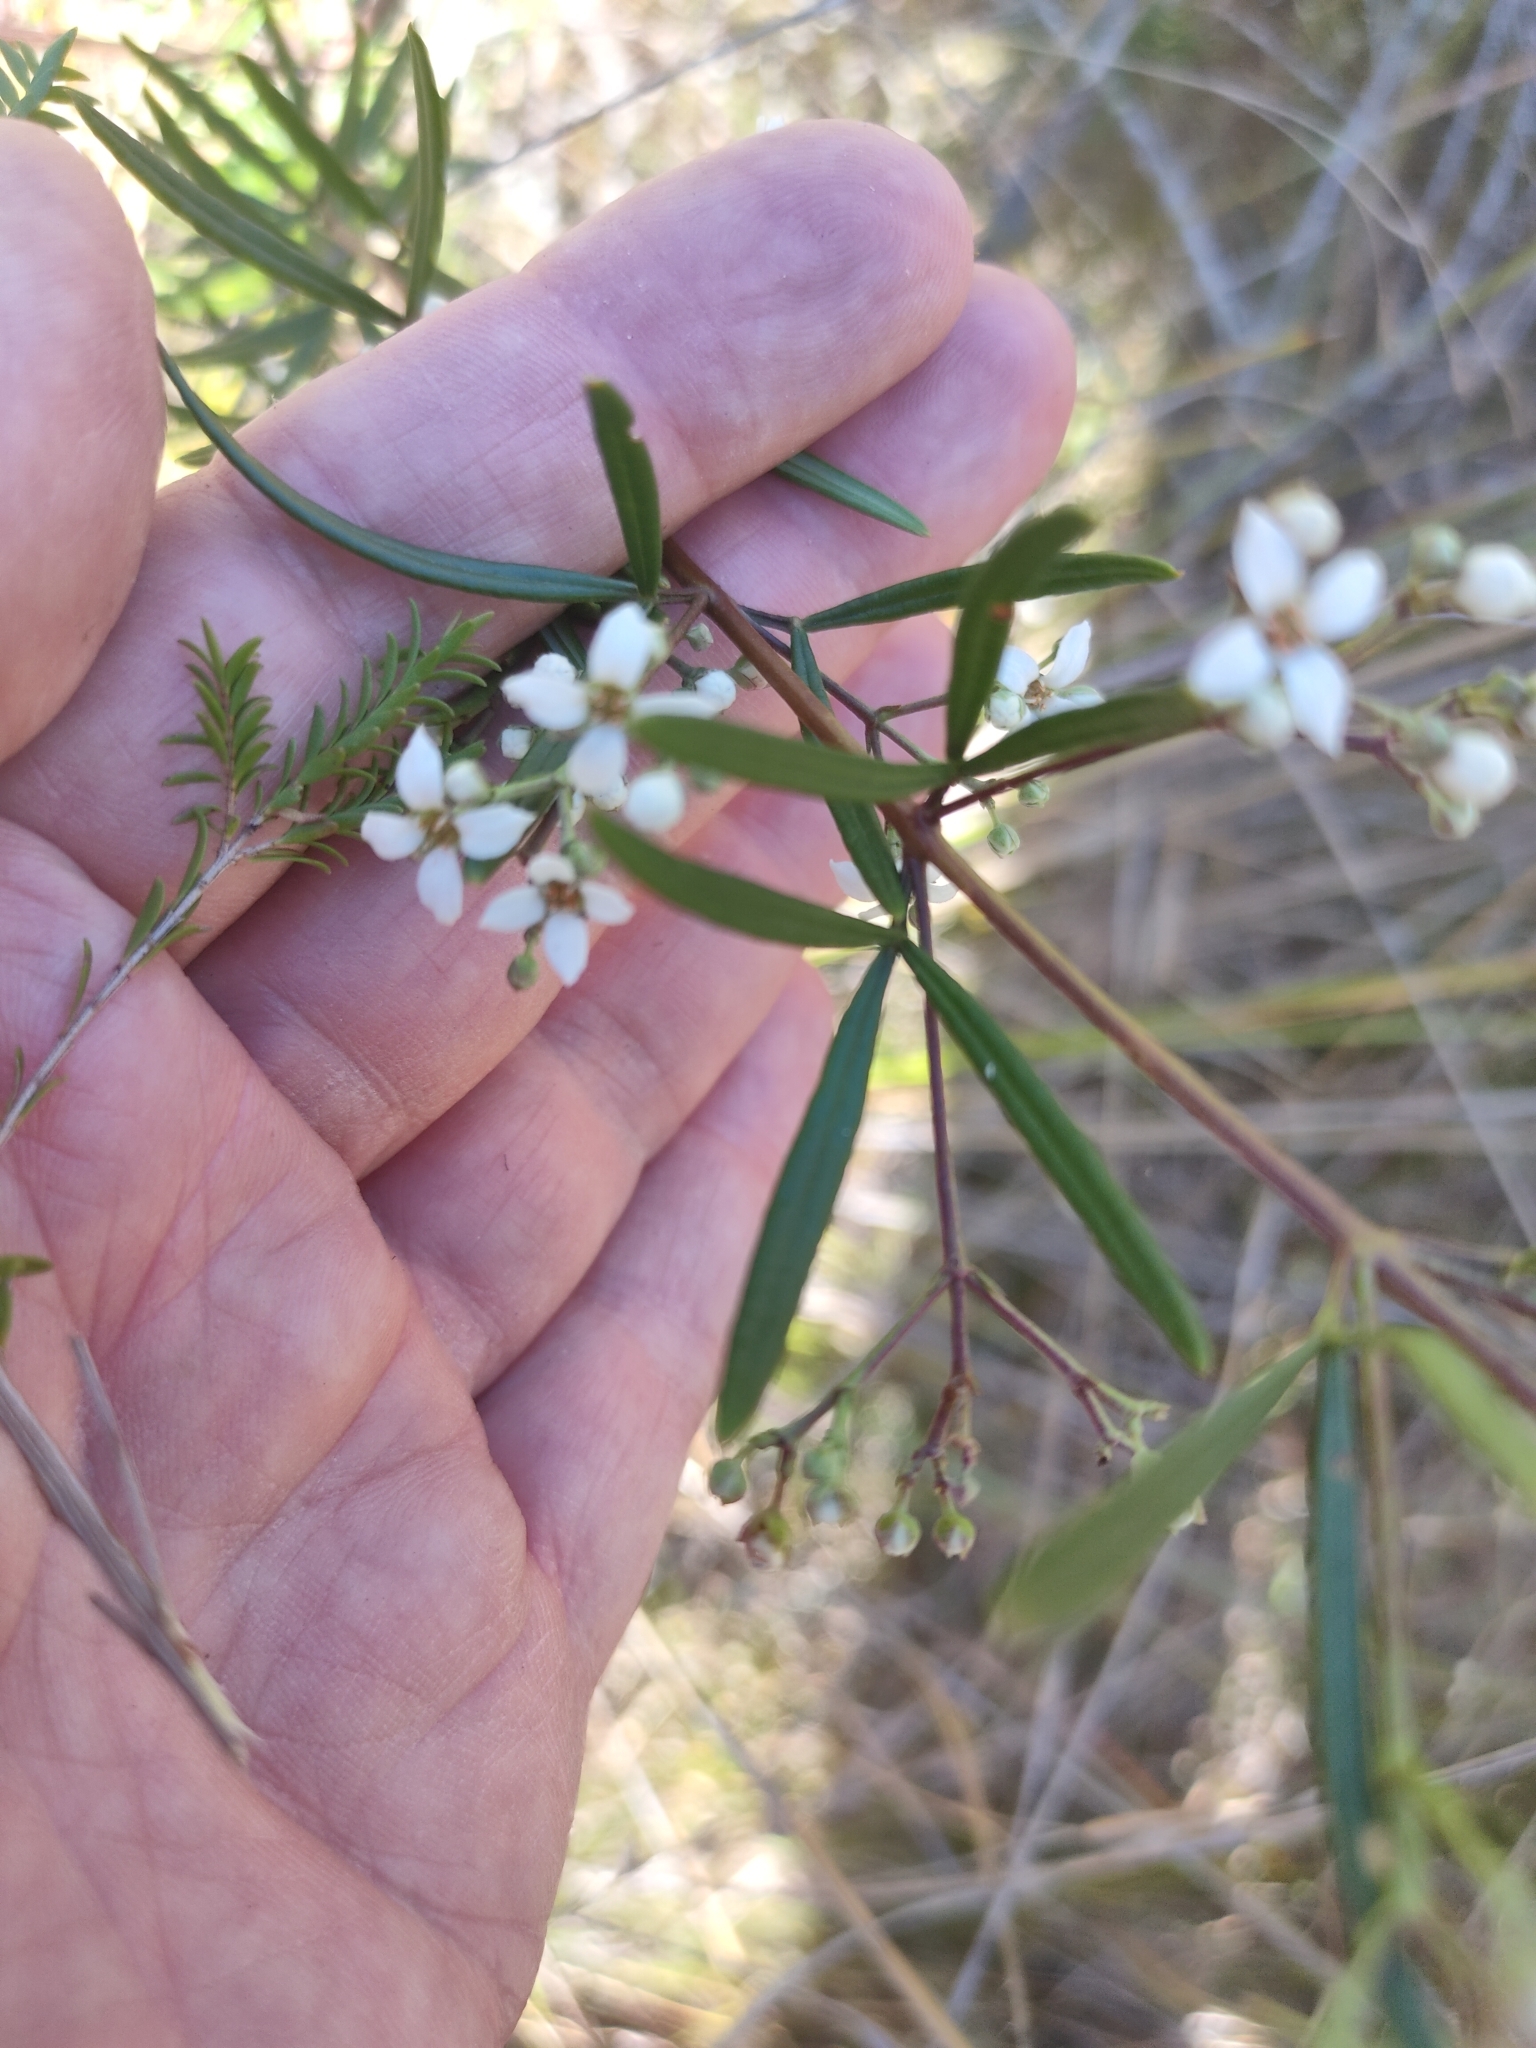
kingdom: Plantae
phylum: Tracheophyta
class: Magnoliopsida
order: Sapindales
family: Rutaceae
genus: Zieria
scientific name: Zieria laxiflora
